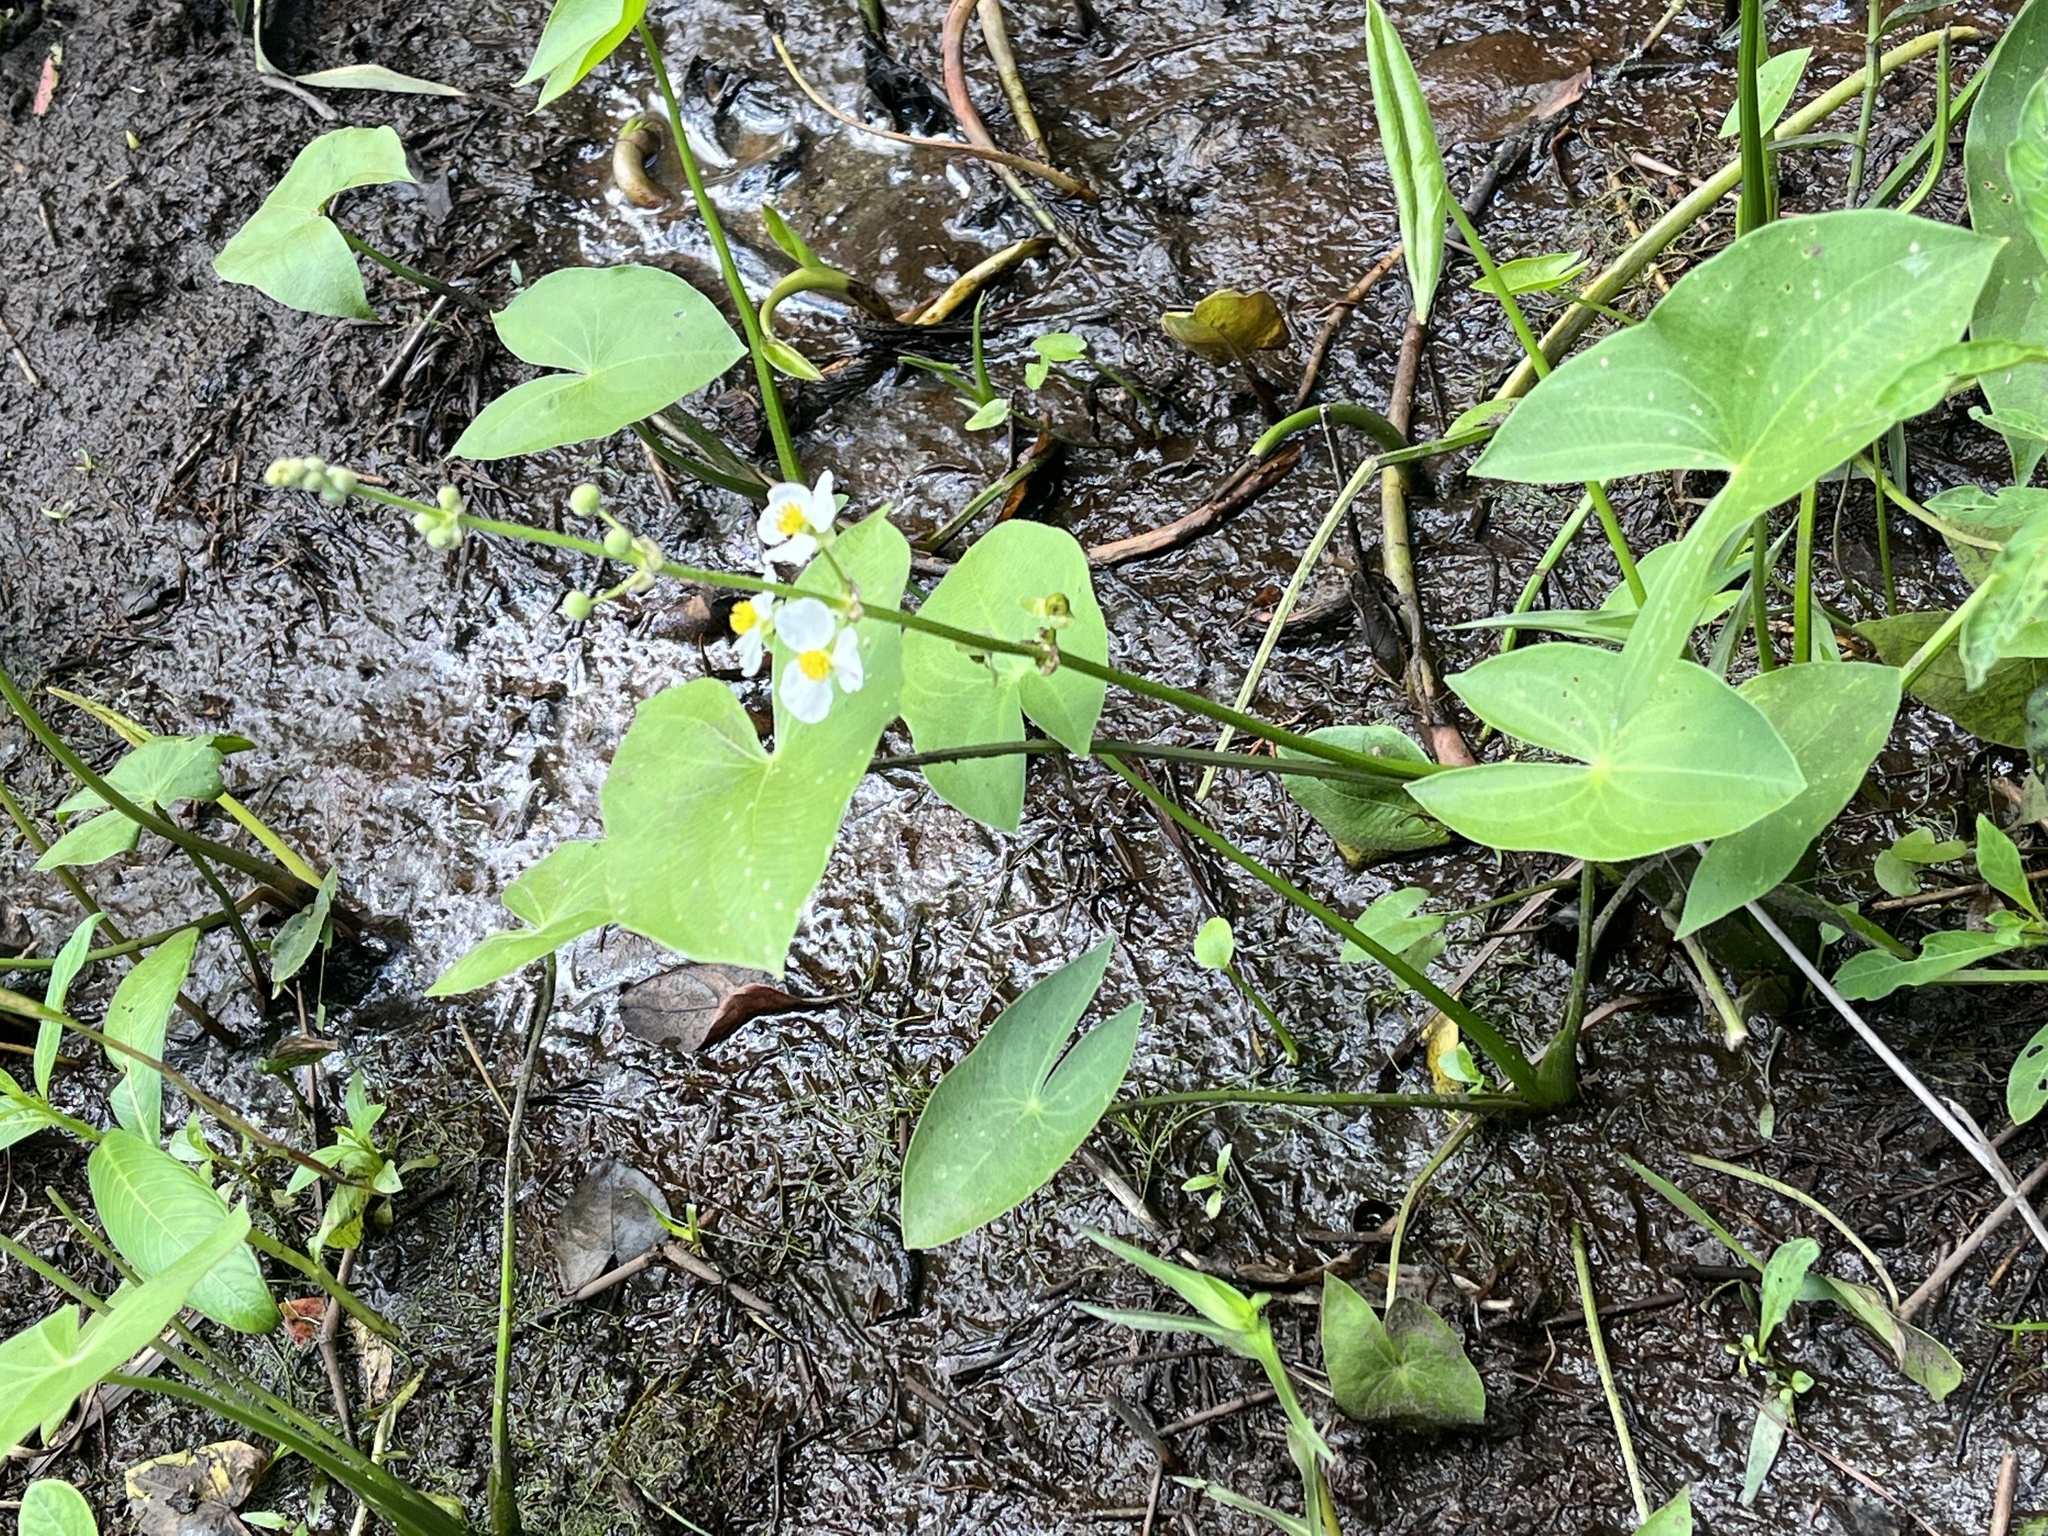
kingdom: Plantae
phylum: Tracheophyta
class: Liliopsida
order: Alismatales
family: Alismataceae
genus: Sagittaria
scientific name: Sagittaria latifolia
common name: Duck-potato
